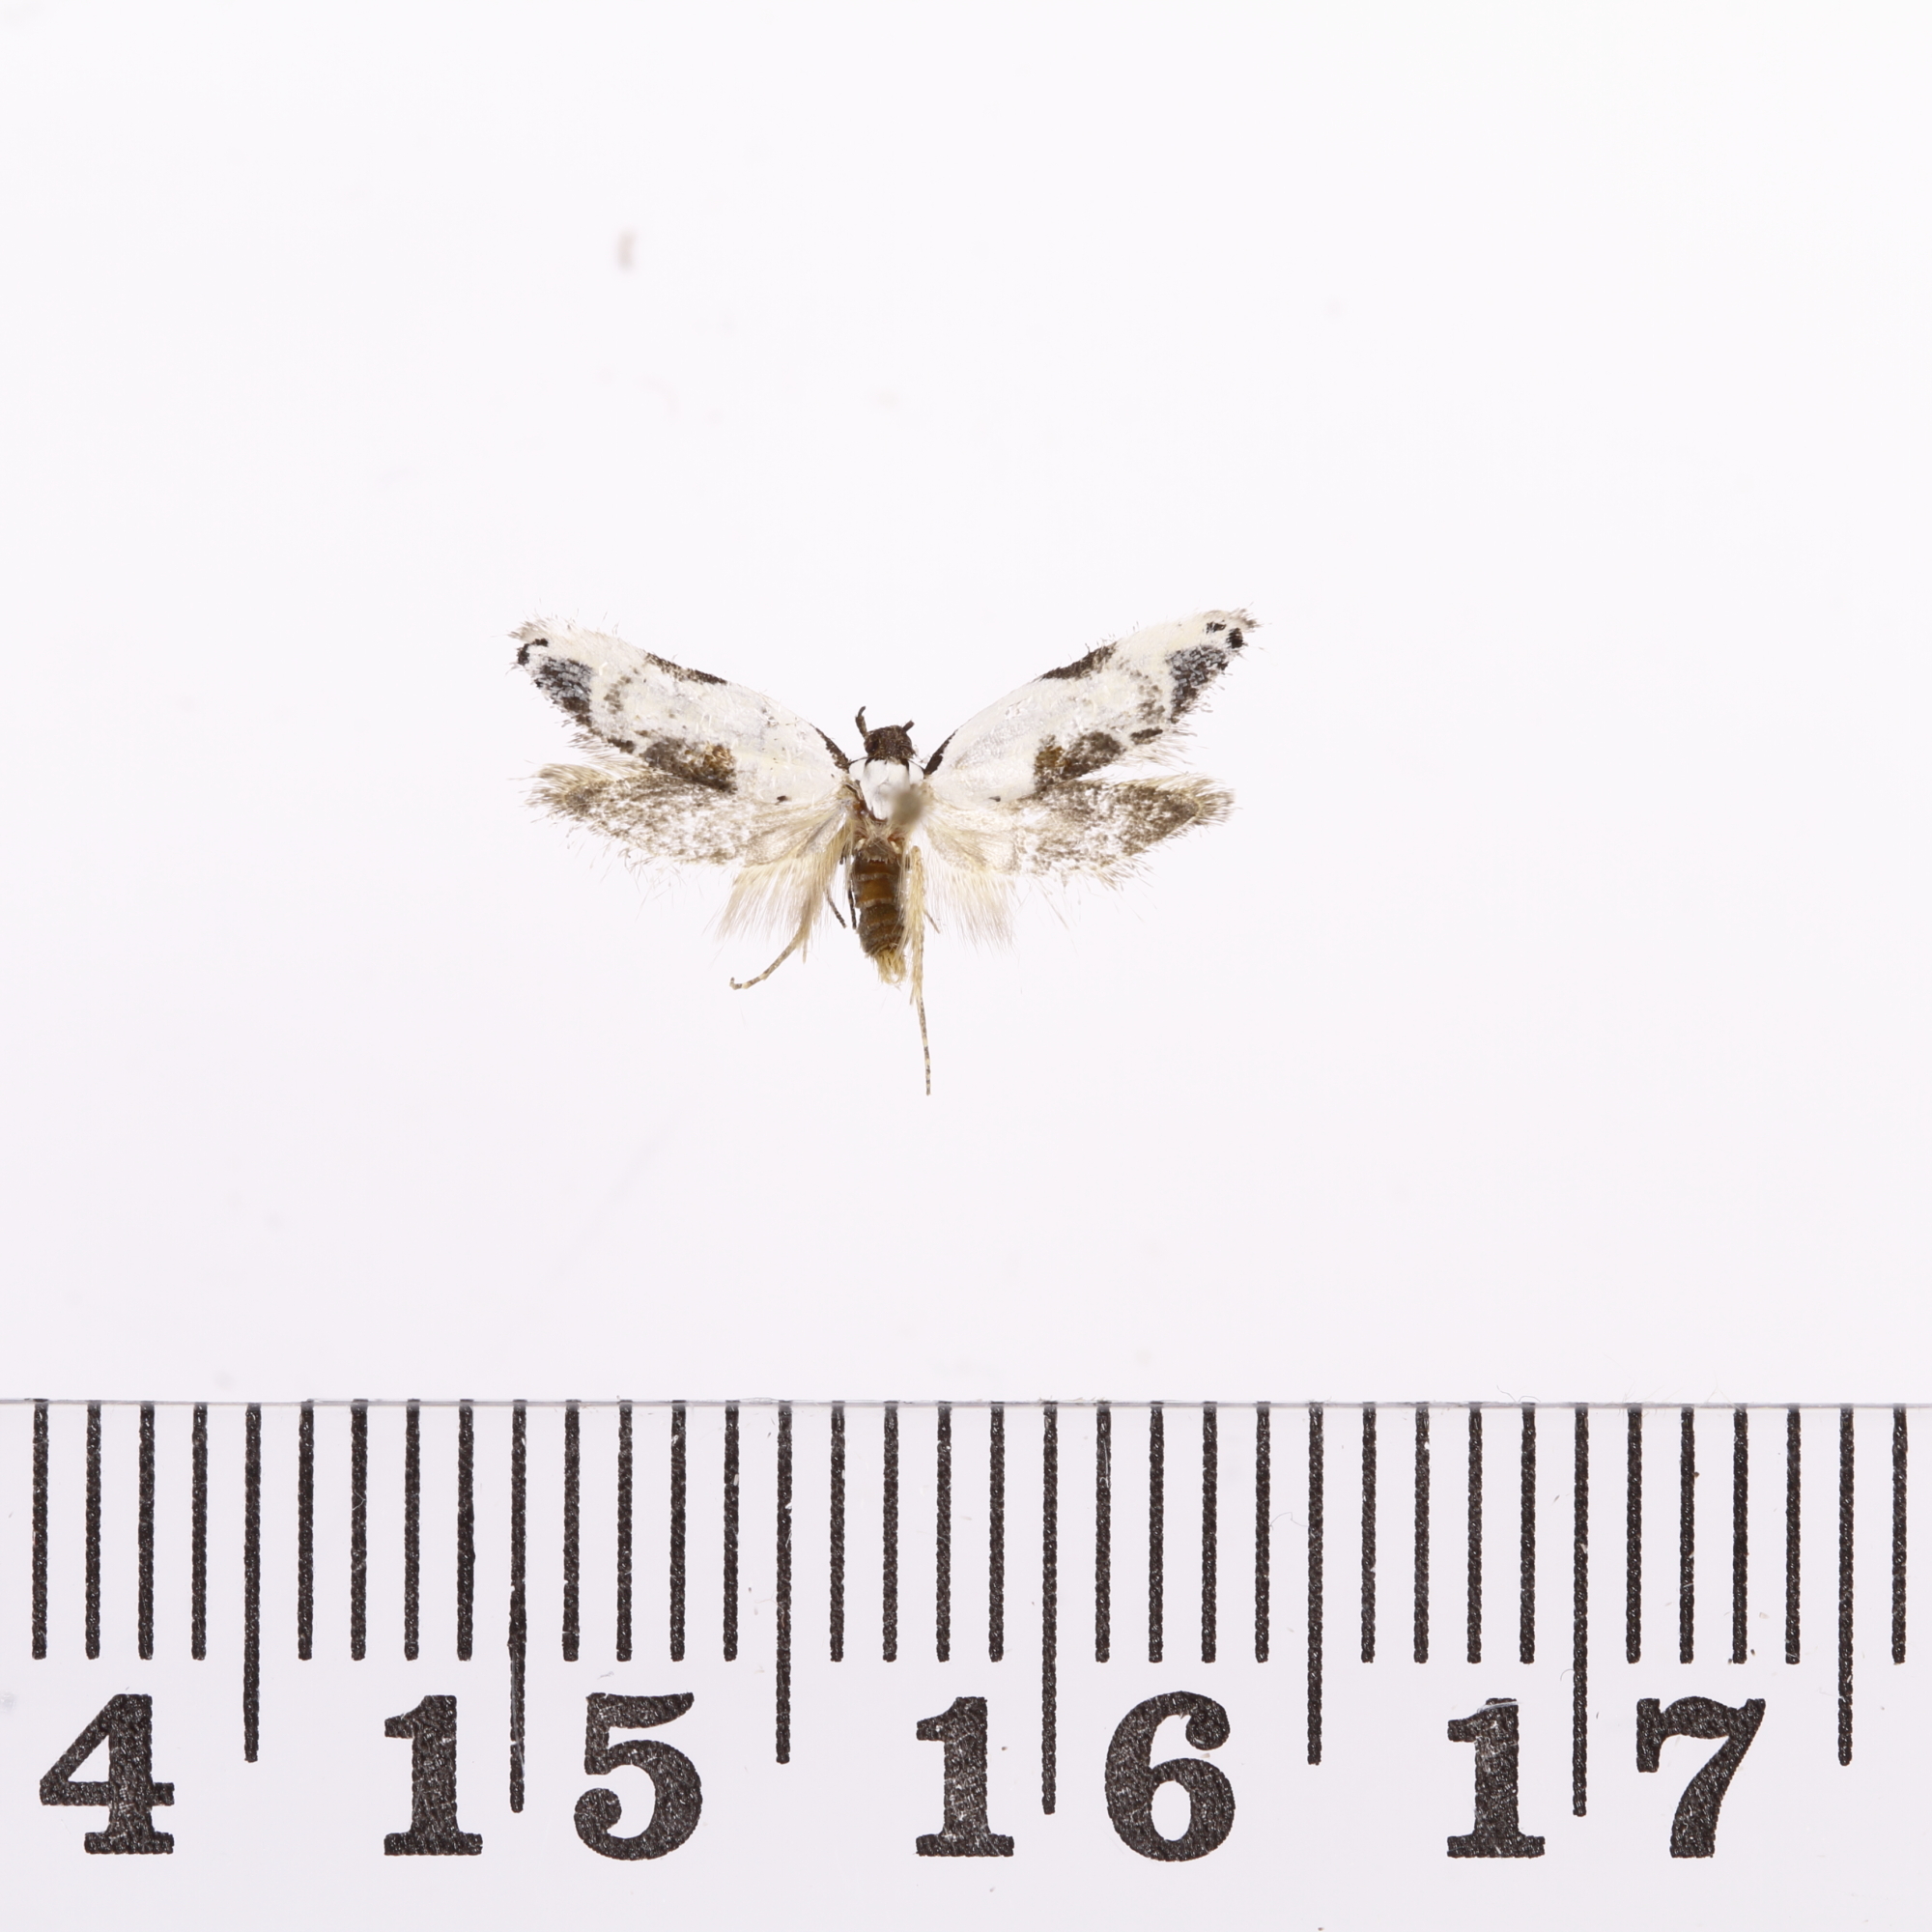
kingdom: Animalia
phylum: Arthropoda
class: Insecta
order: Lepidoptera
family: Oecophoridae
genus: Trachypepla
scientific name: Trachypepla hieropis
